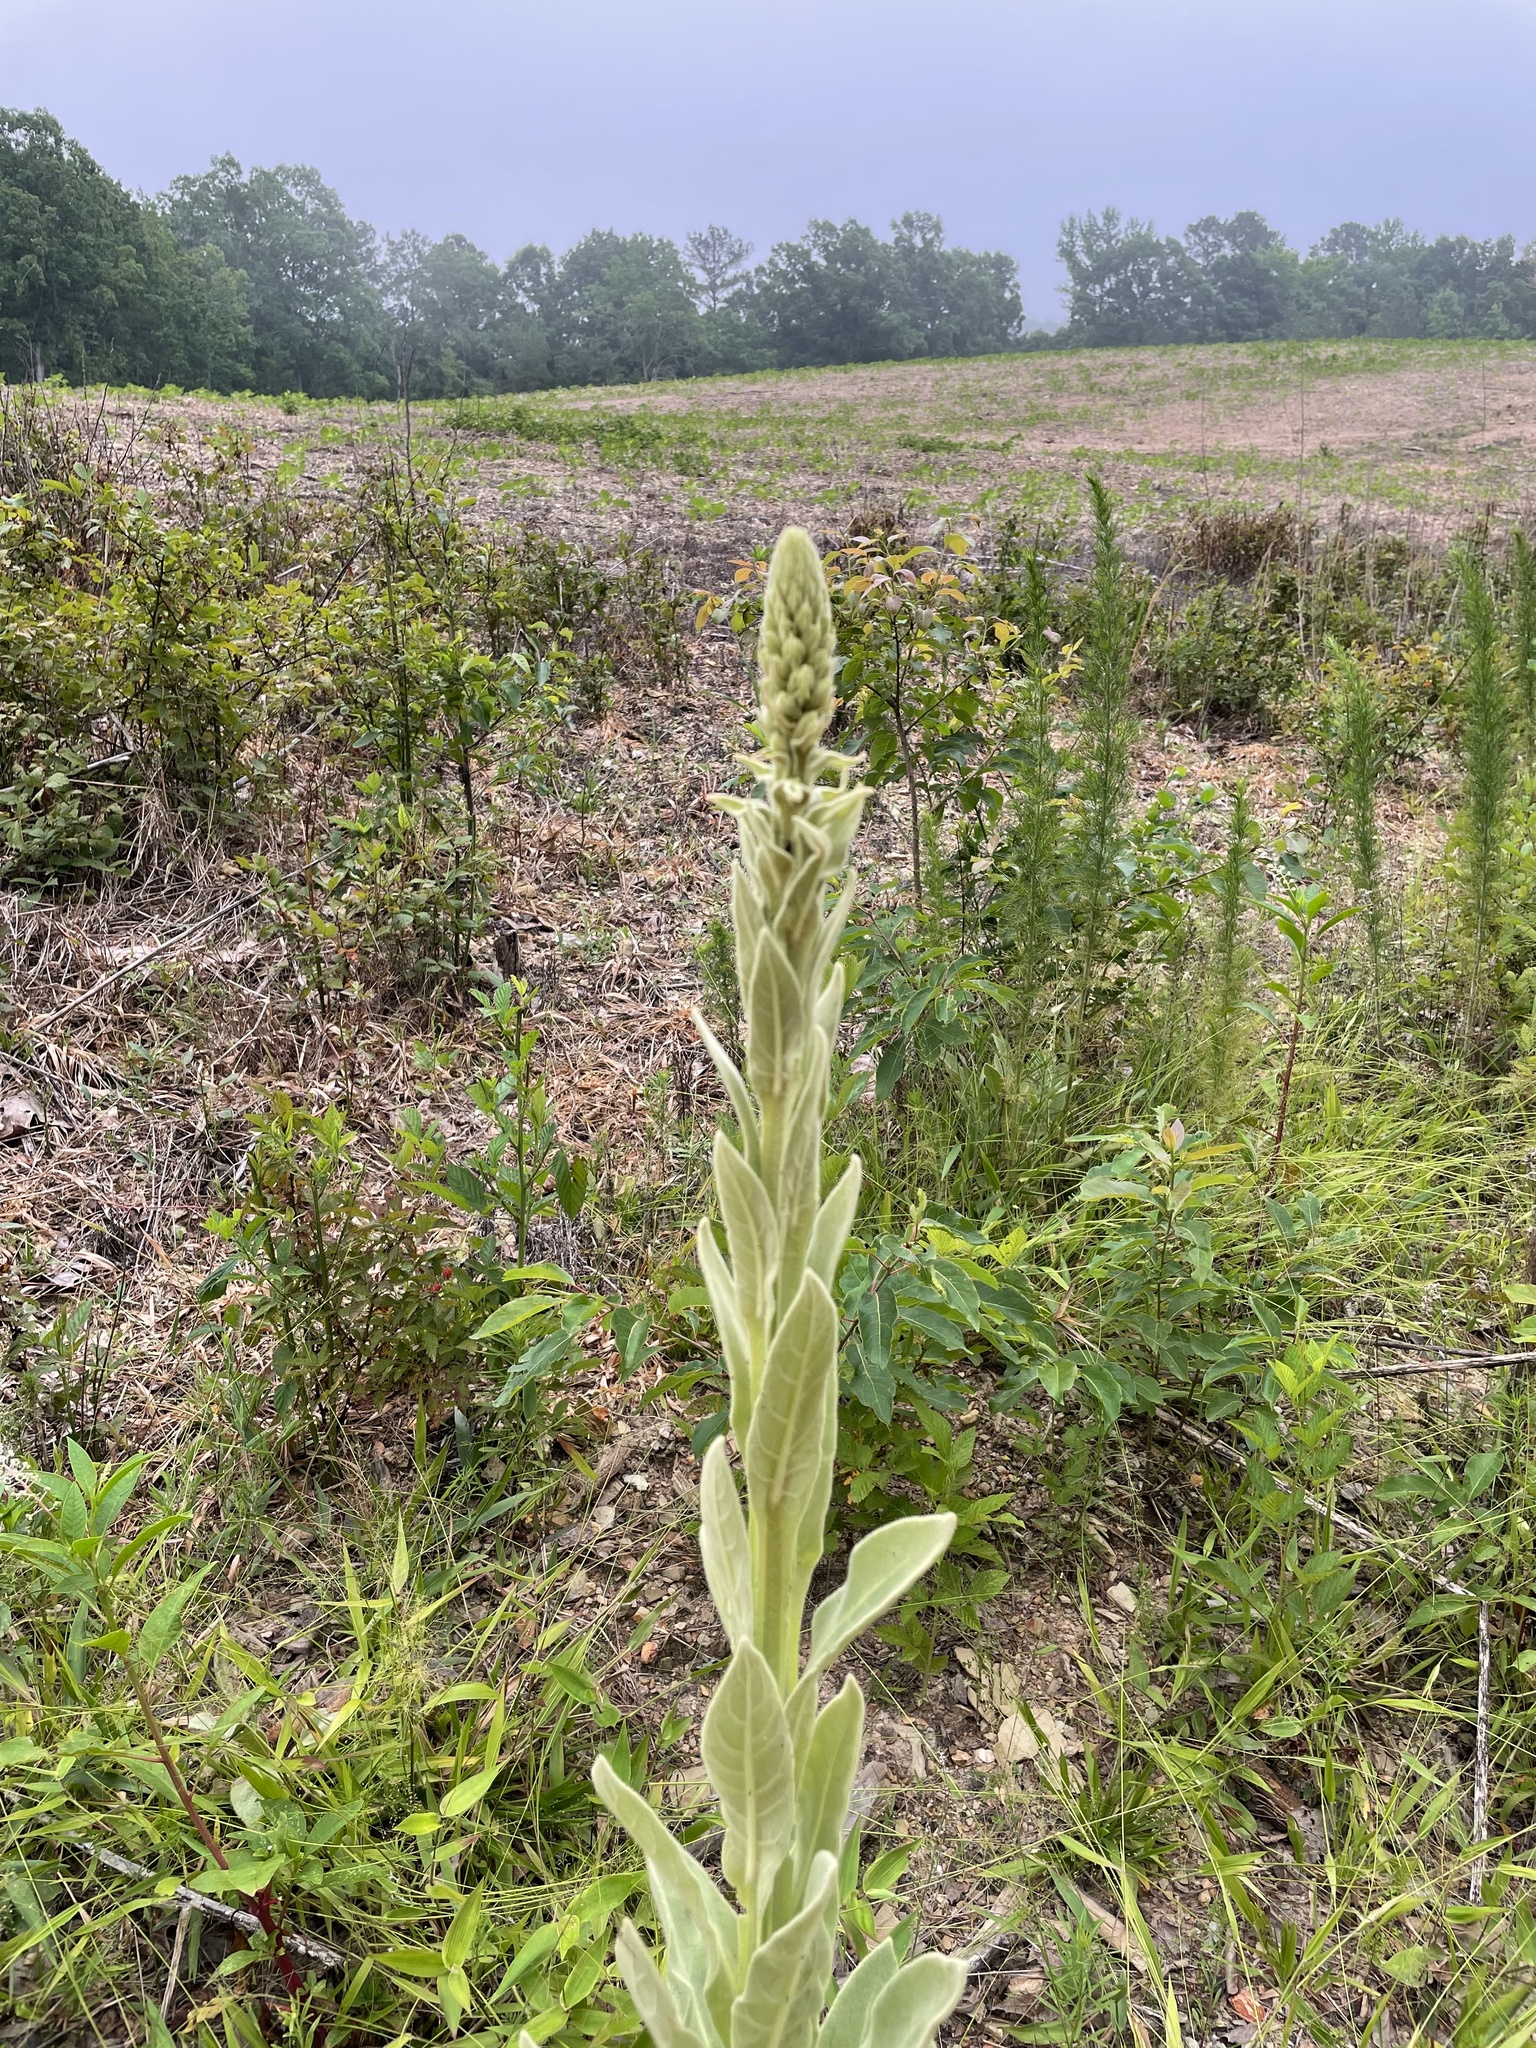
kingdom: Plantae
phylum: Tracheophyta
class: Magnoliopsida
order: Lamiales
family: Scrophulariaceae
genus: Verbascum
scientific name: Verbascum thapsus
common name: Common mullein
